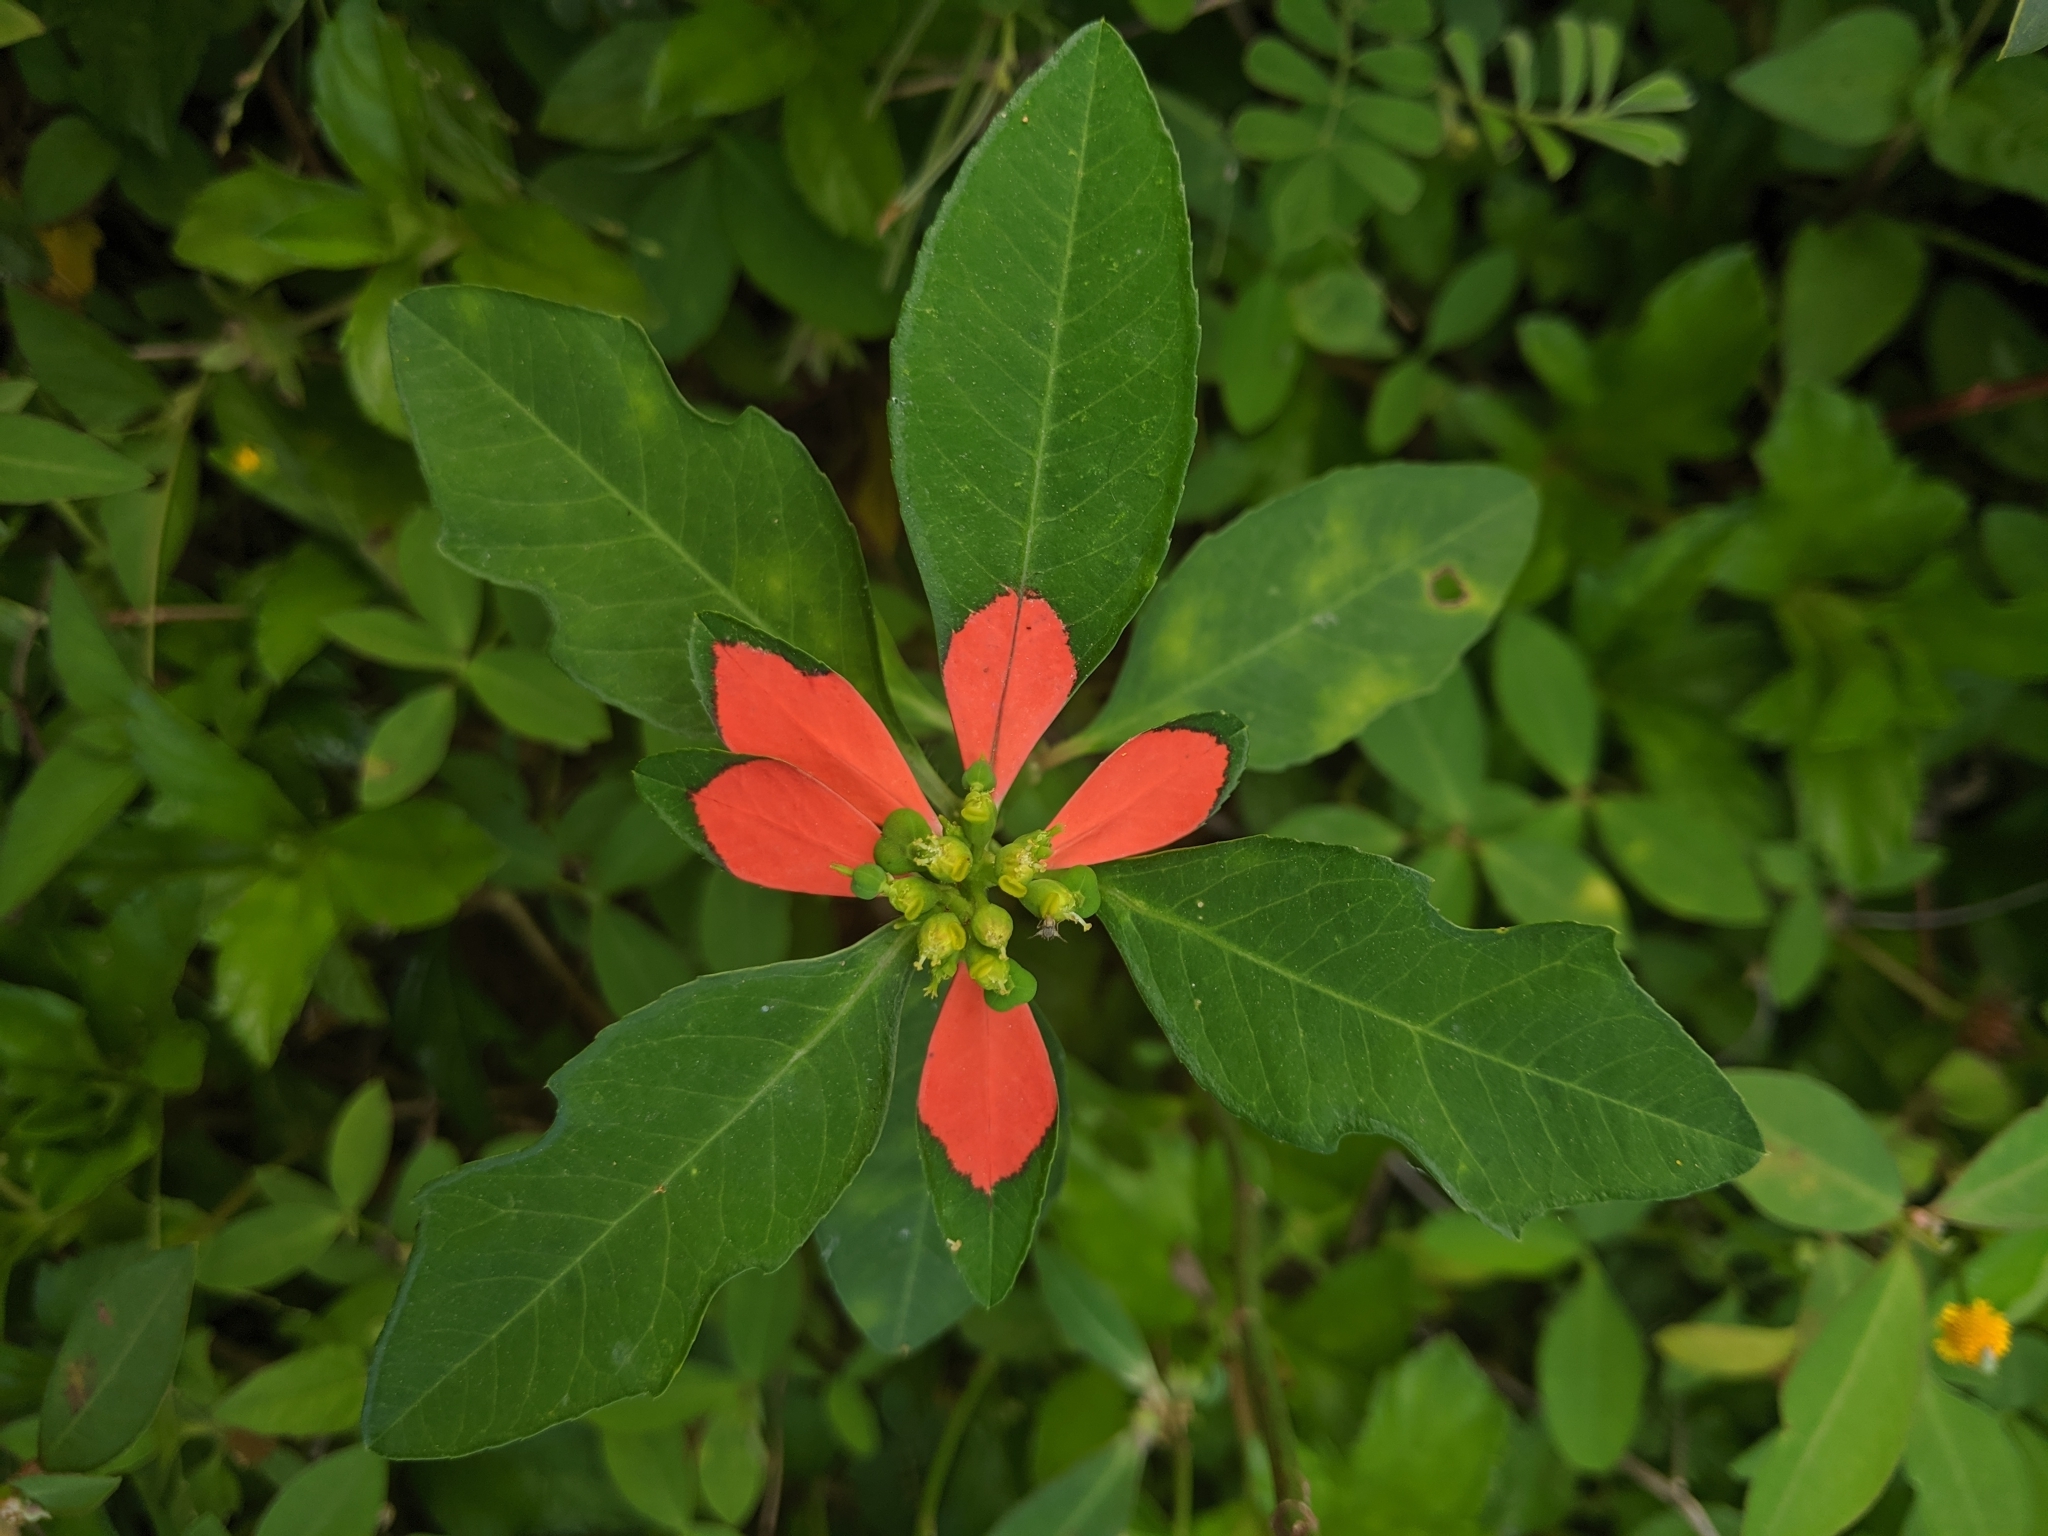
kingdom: Plantae
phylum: Tracheophyta
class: Magnoliopsida
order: Malpighiales
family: Euphorbiaceae
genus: Euphorbia
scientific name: Euphorbia heterophylla
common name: Mexican fireplant
